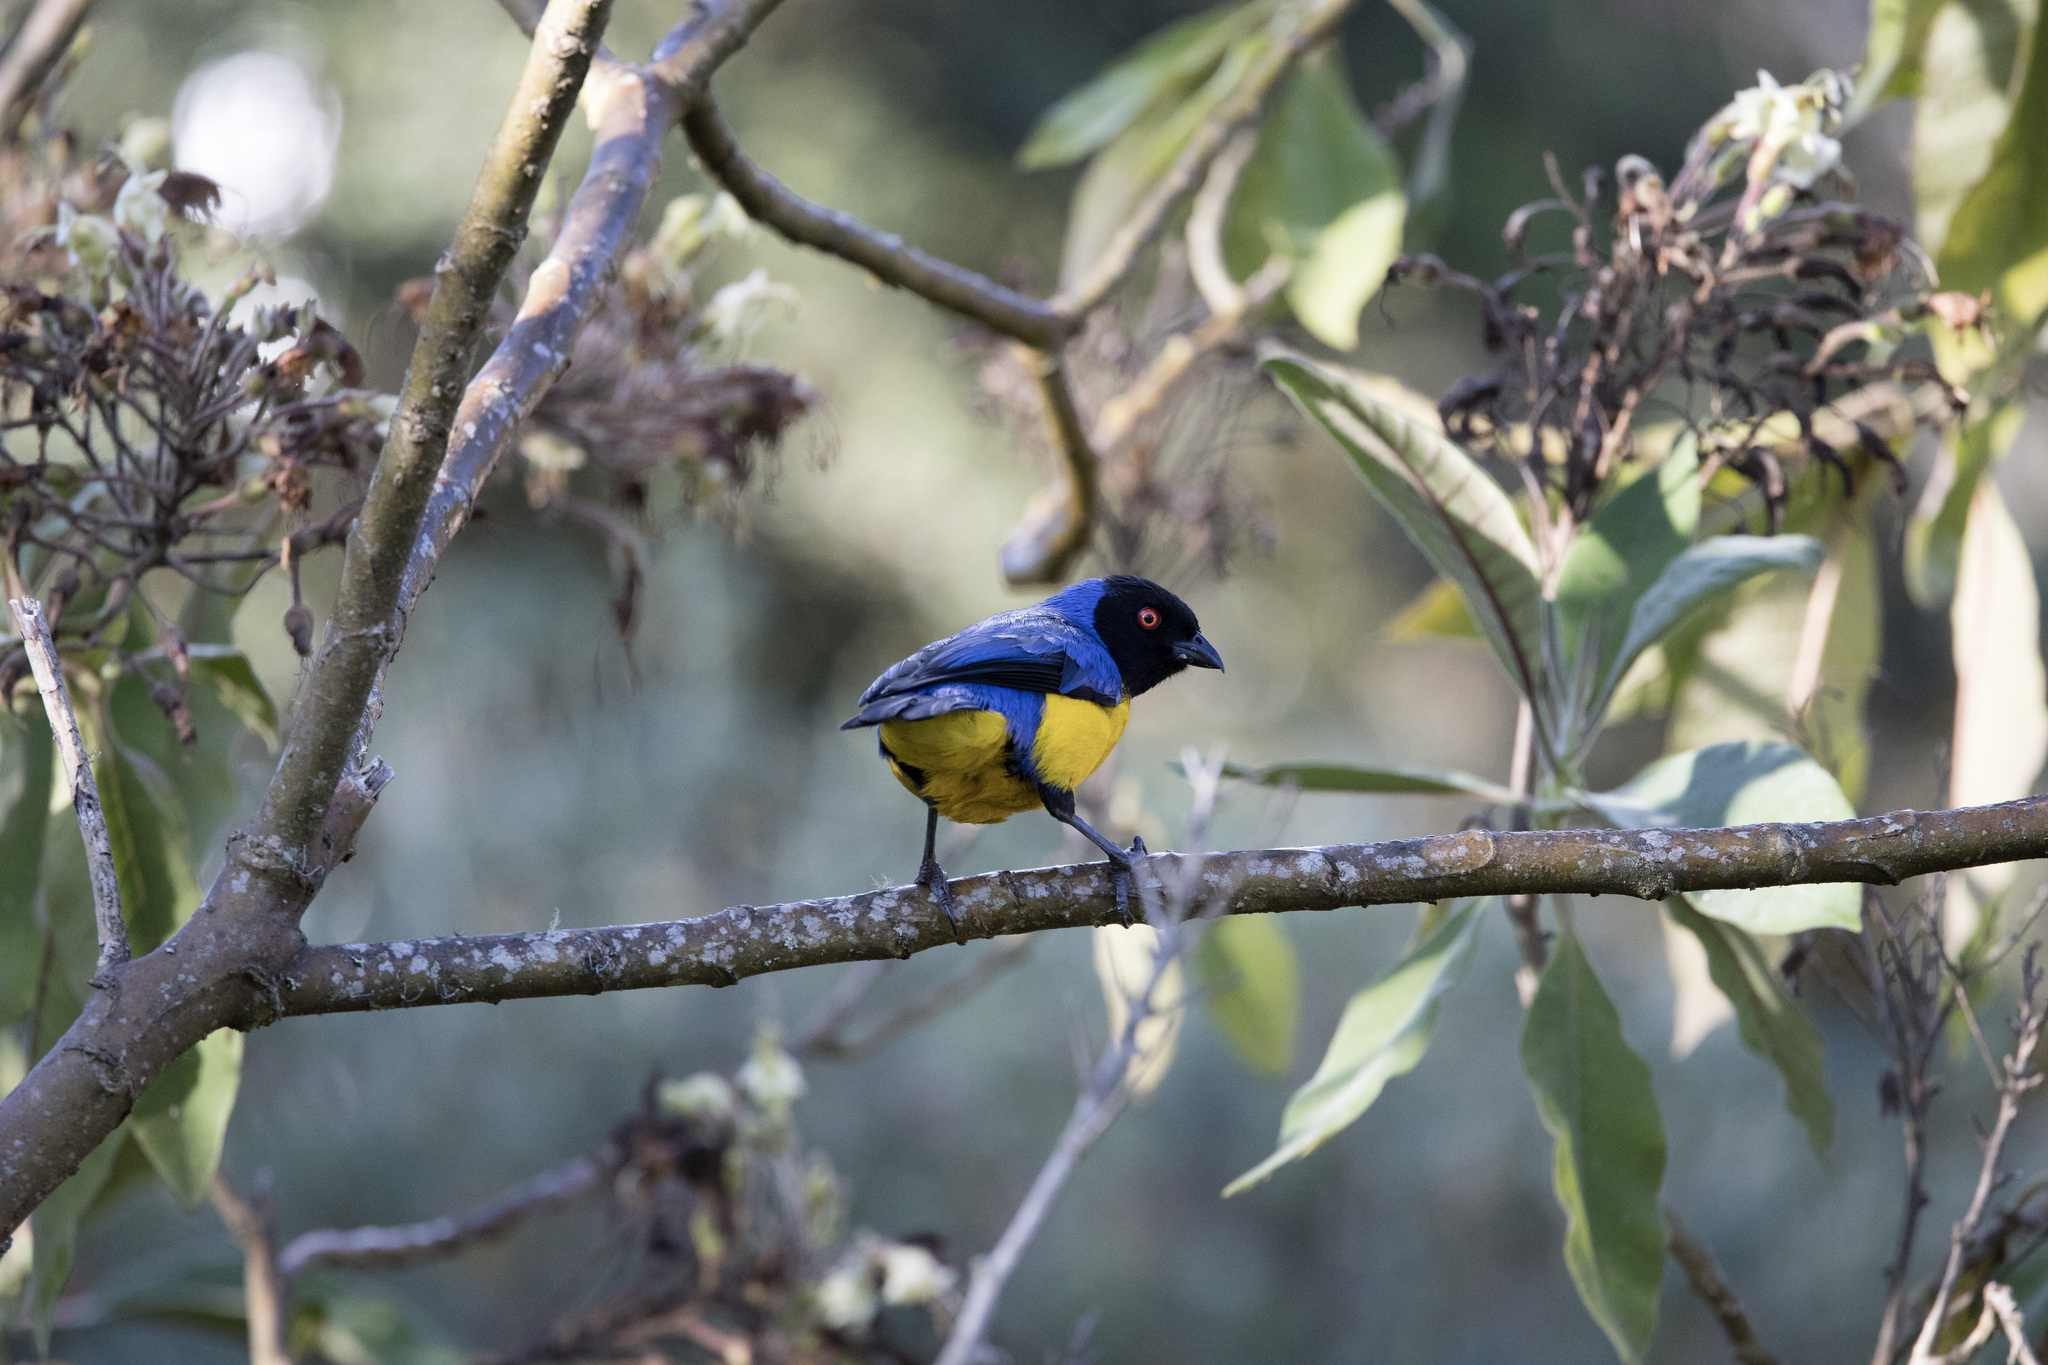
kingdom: Animalia
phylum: Chordata
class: Aves
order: Passeriformes
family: Thraupidae
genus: Buthraupis
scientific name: Buthraupis montana
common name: Hooded mountain tanager
